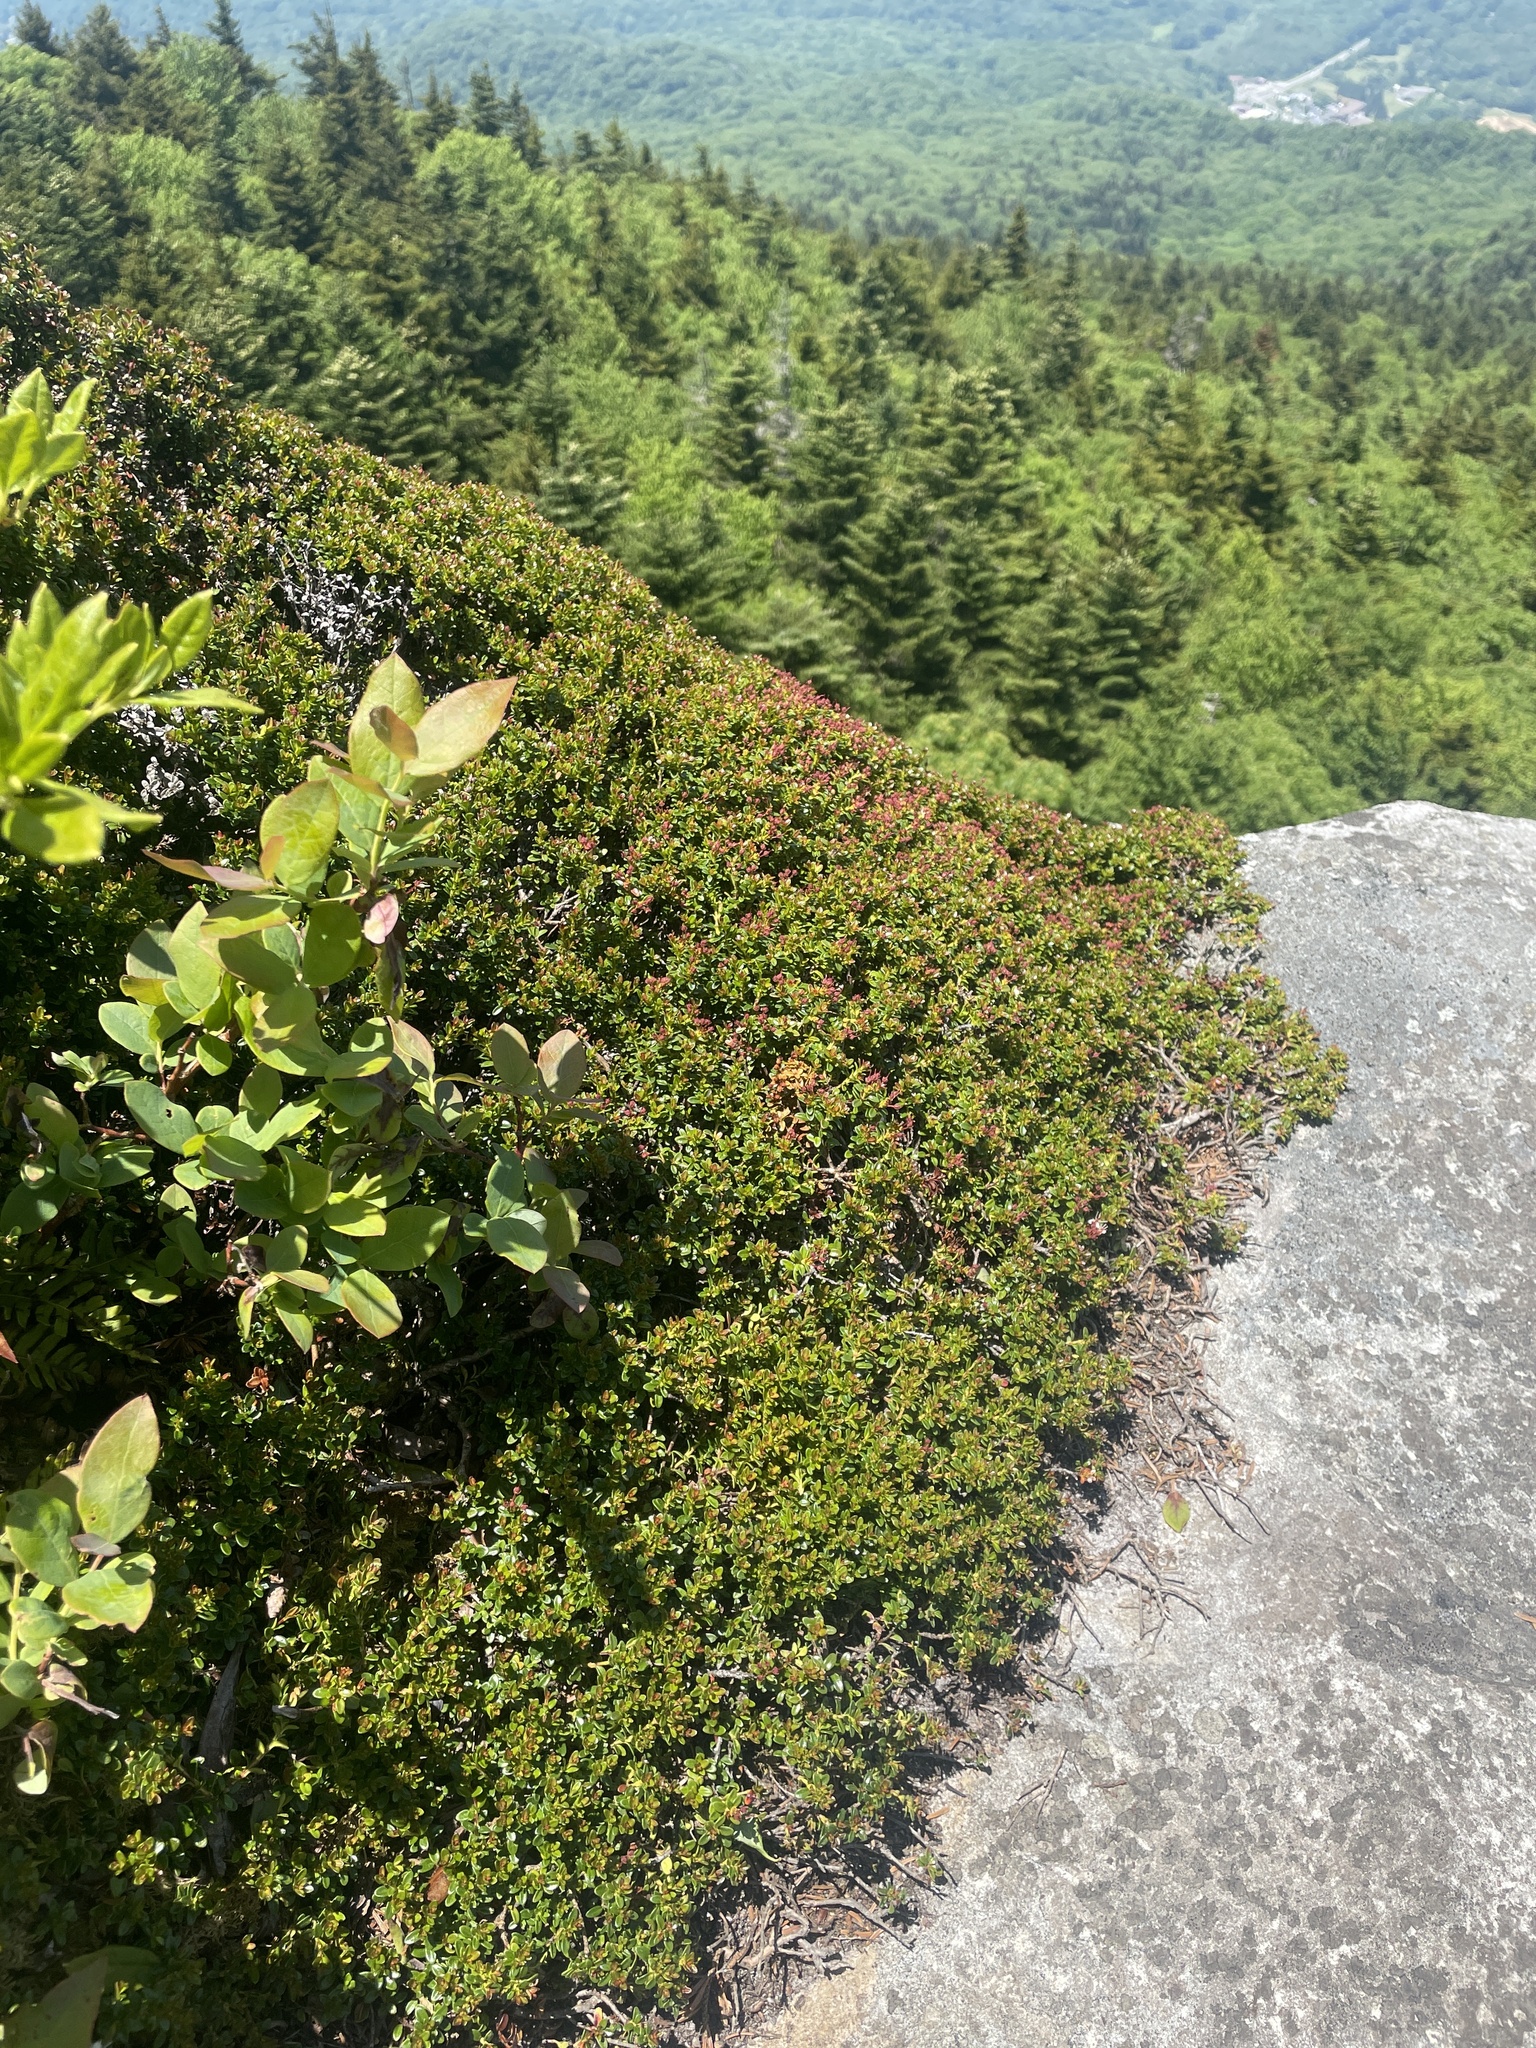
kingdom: Plantae
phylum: Tracheophyta
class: Magnoliopsida
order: Ericales
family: Ericaceae
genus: Kalmia
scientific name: Kalmia buxifolia
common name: Sandmyrtle
